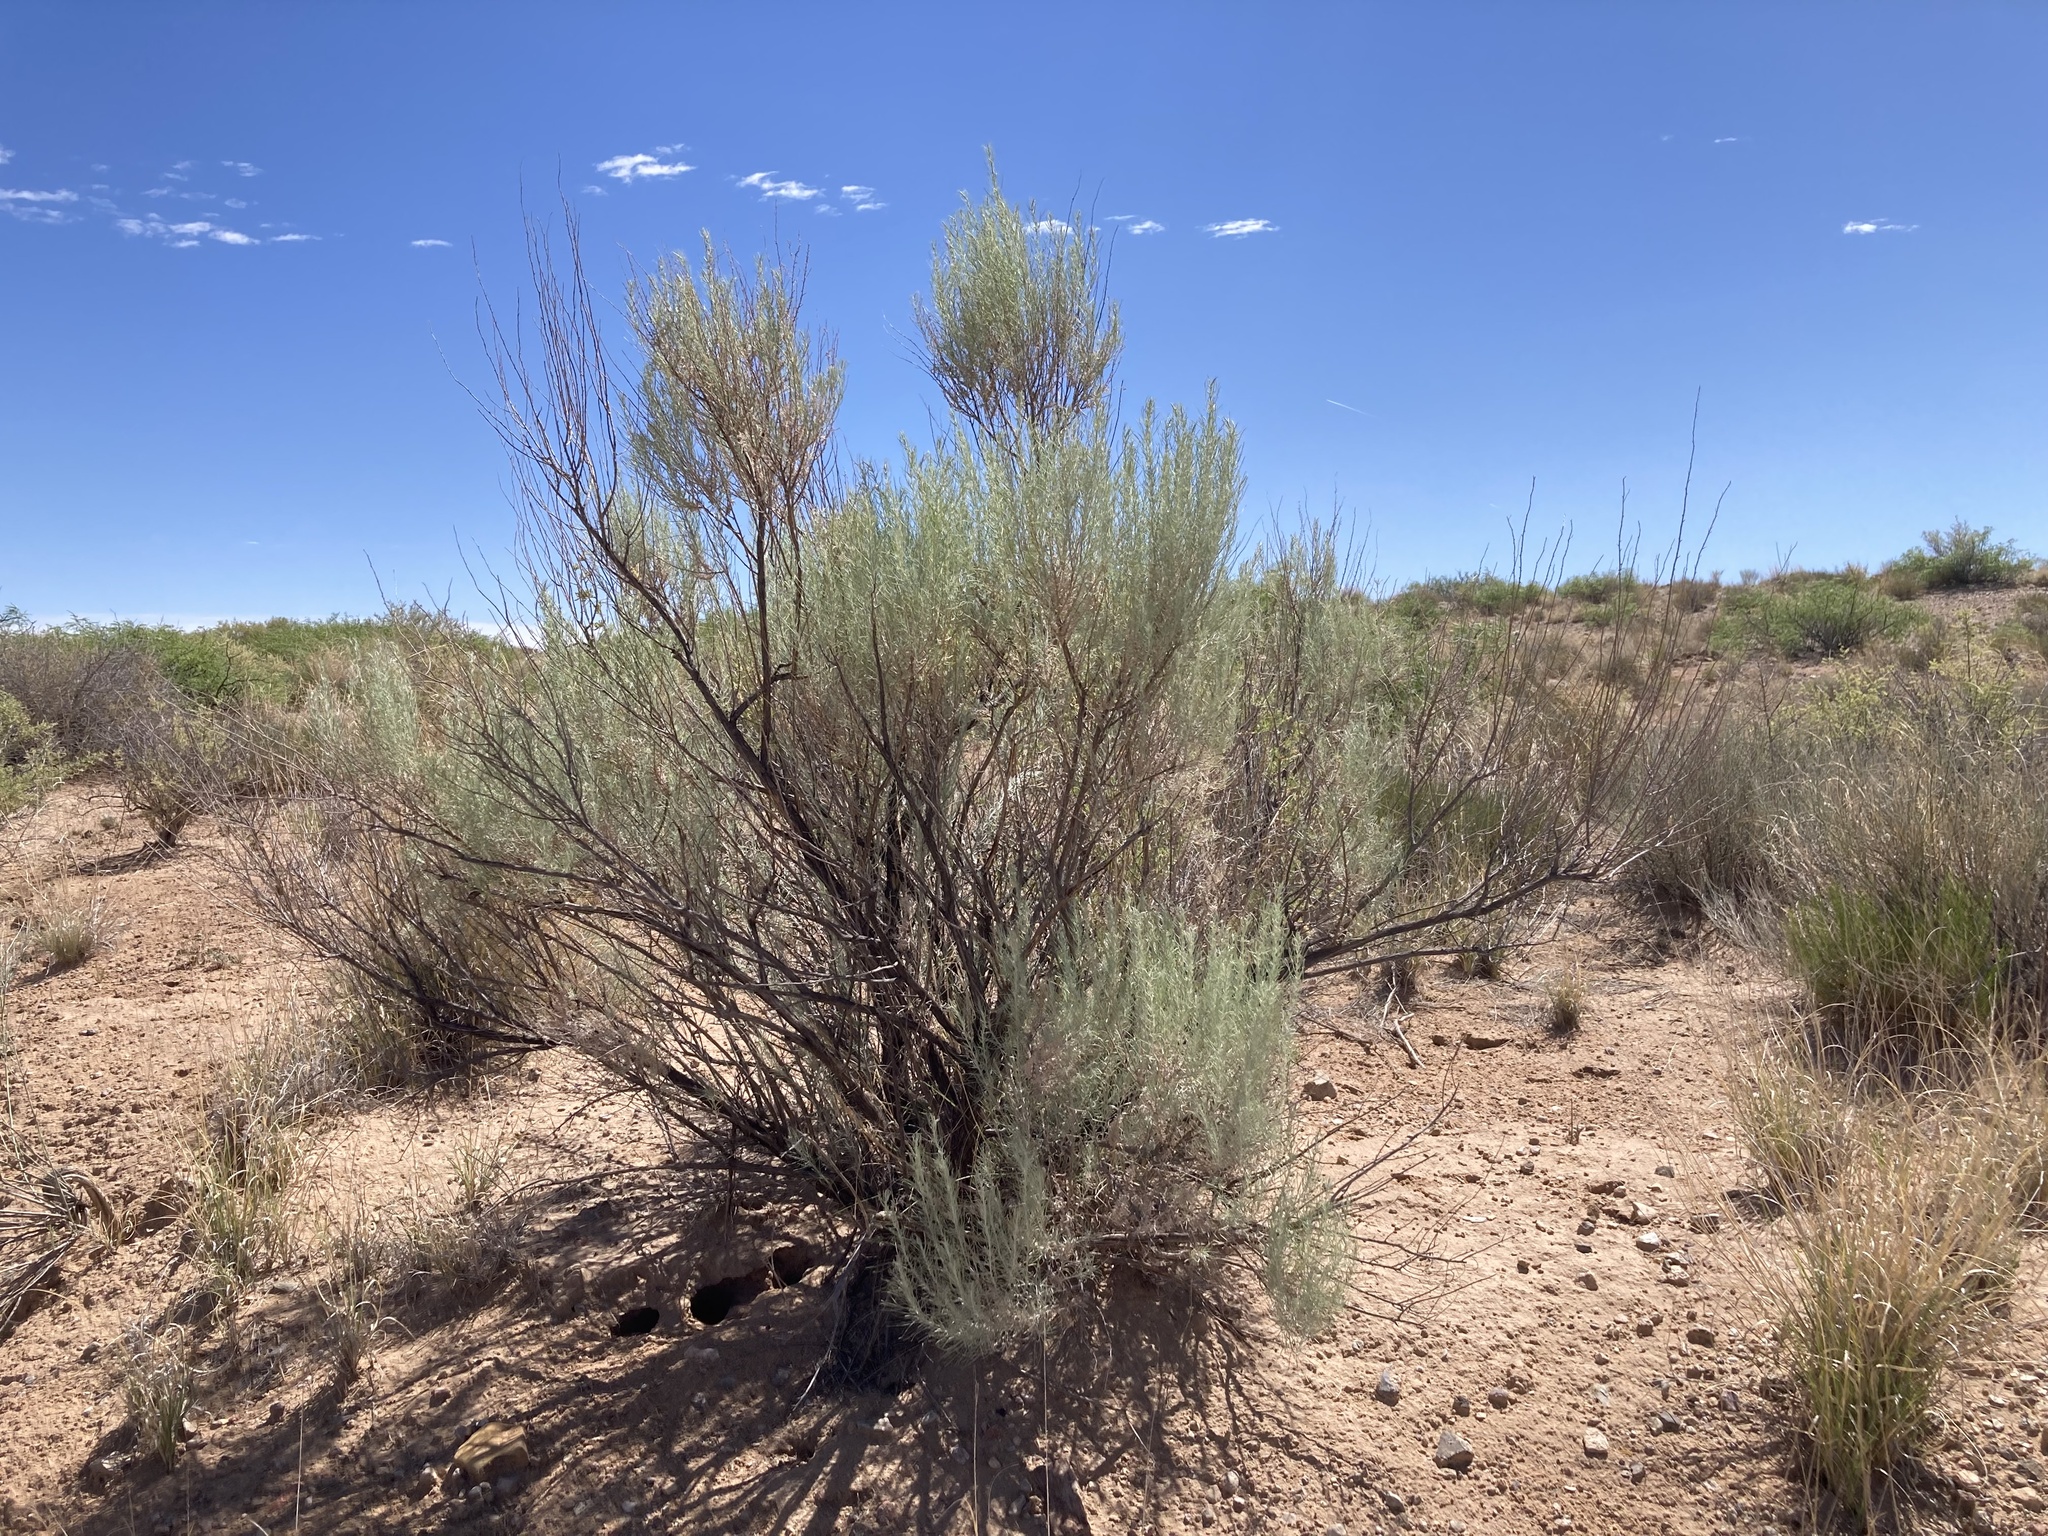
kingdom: Plantae
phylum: Tracheophyta
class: Magnoliopsida
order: Asterales
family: Asteraceae
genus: Artemisia
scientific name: Artemisia filifolia
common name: Sand-sage
